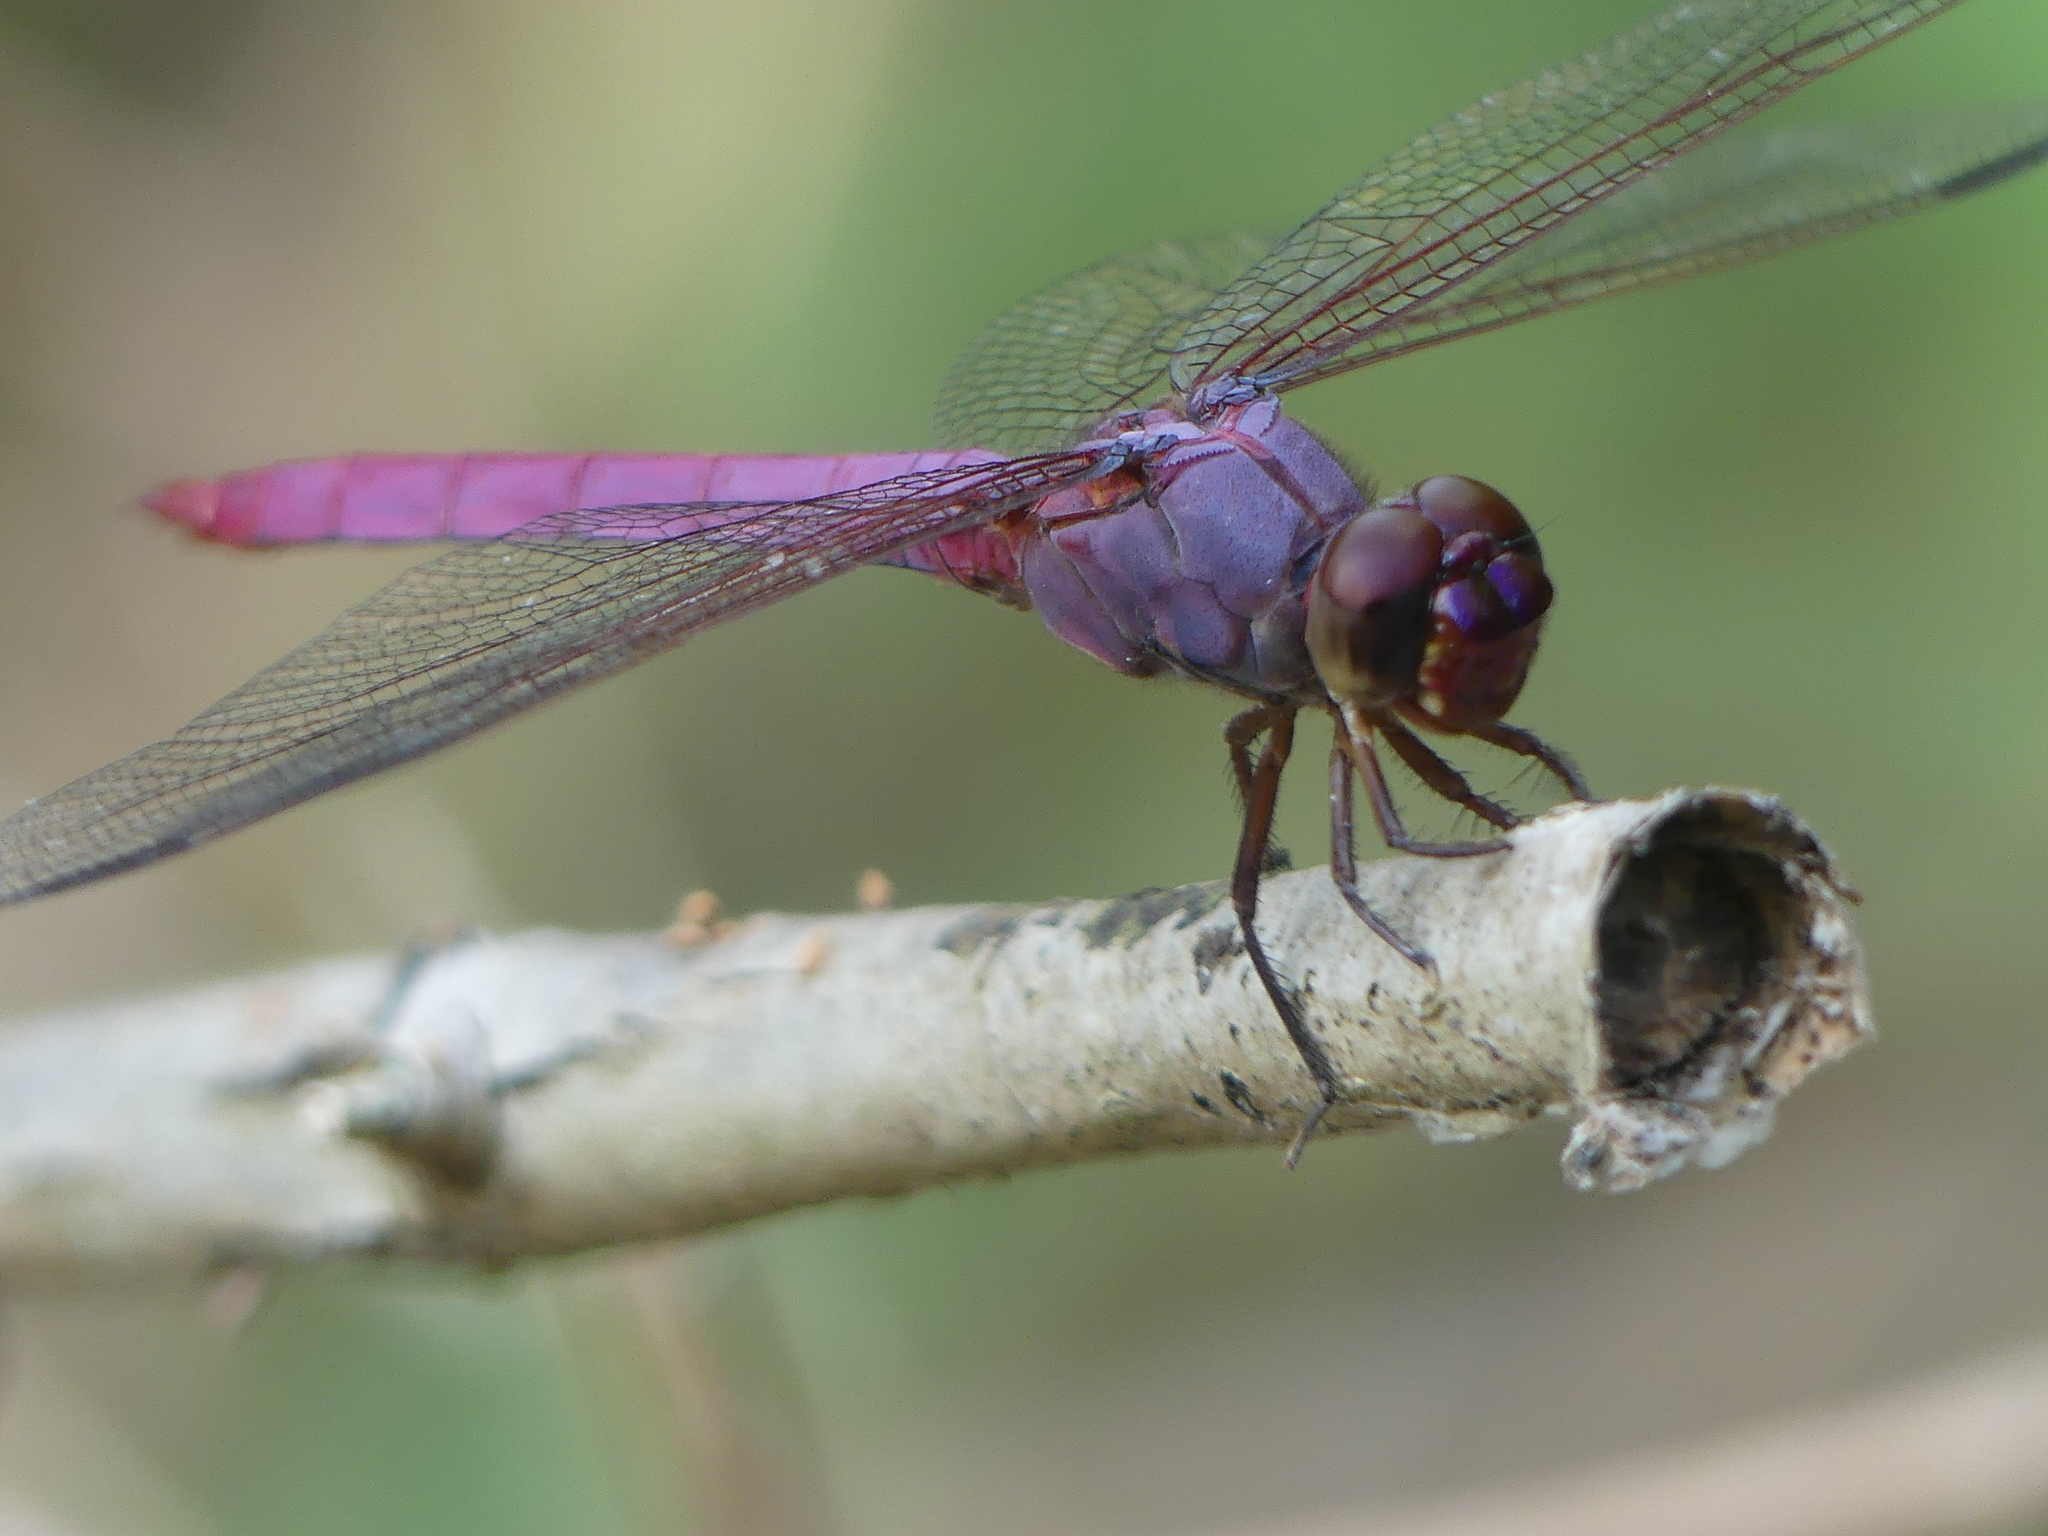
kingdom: Animalia
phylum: Arthropoda
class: Insecta
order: Odonata
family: Libellulidae
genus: Orthemis
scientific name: Orthemis ferruginea
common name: Roseate skimmer
